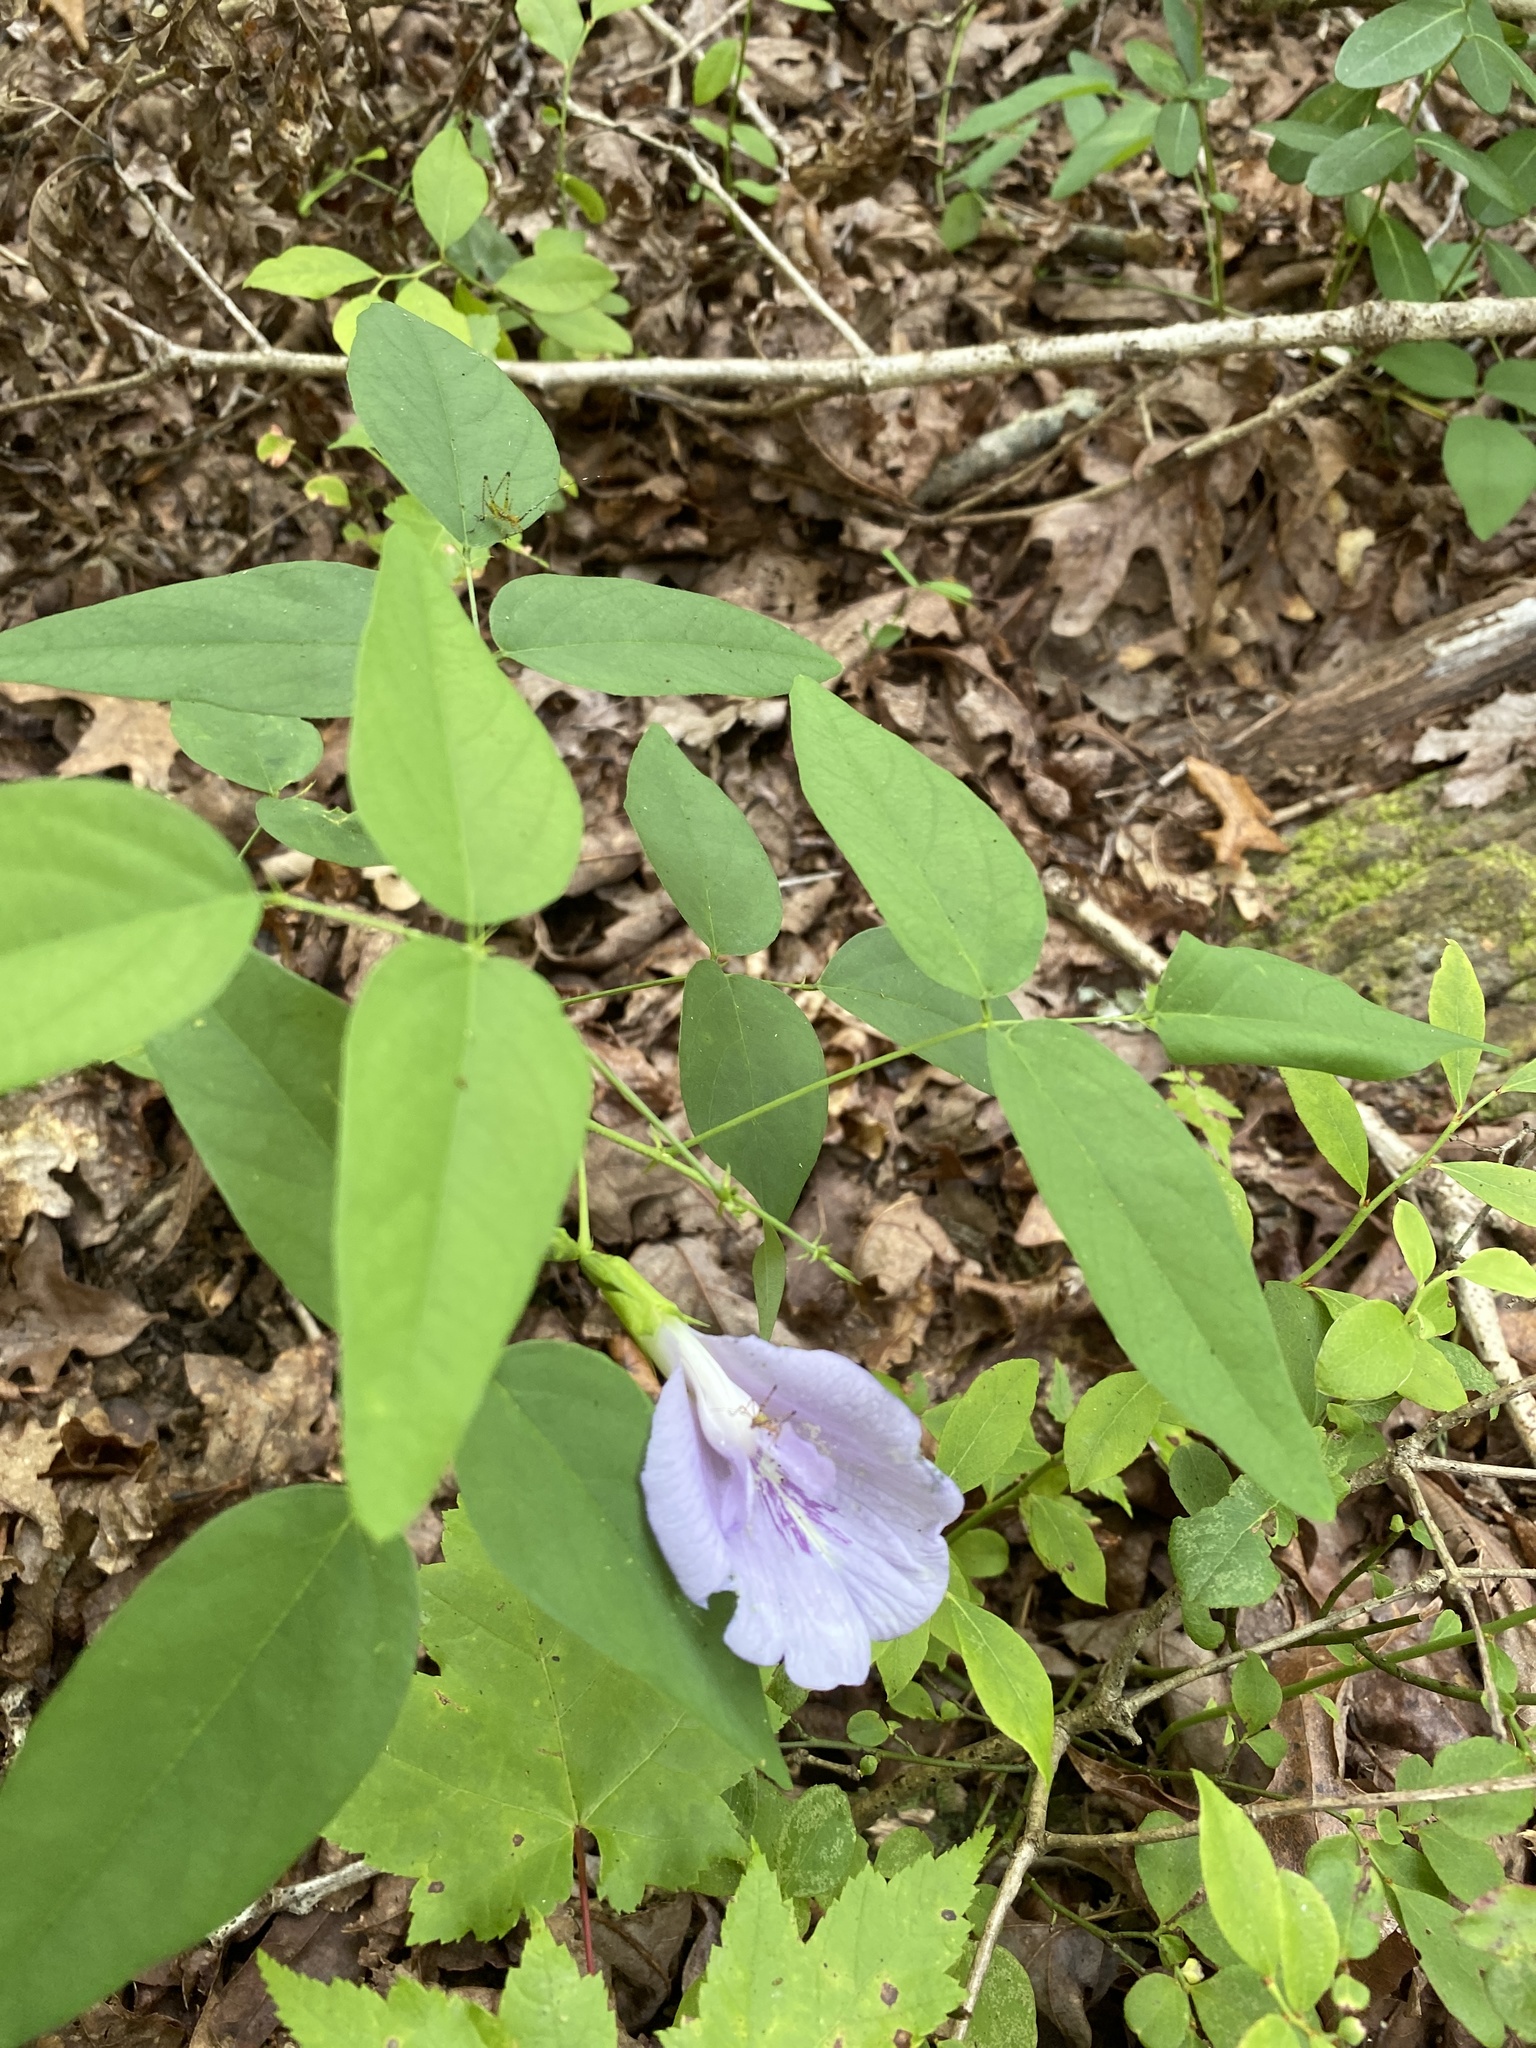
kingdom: Plantae
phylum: Tracheophyta
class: Magnoliopsida
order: Fabales
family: Fabaceae
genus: Clitoria
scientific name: Clitoria mariana
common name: Butterfly-pea
